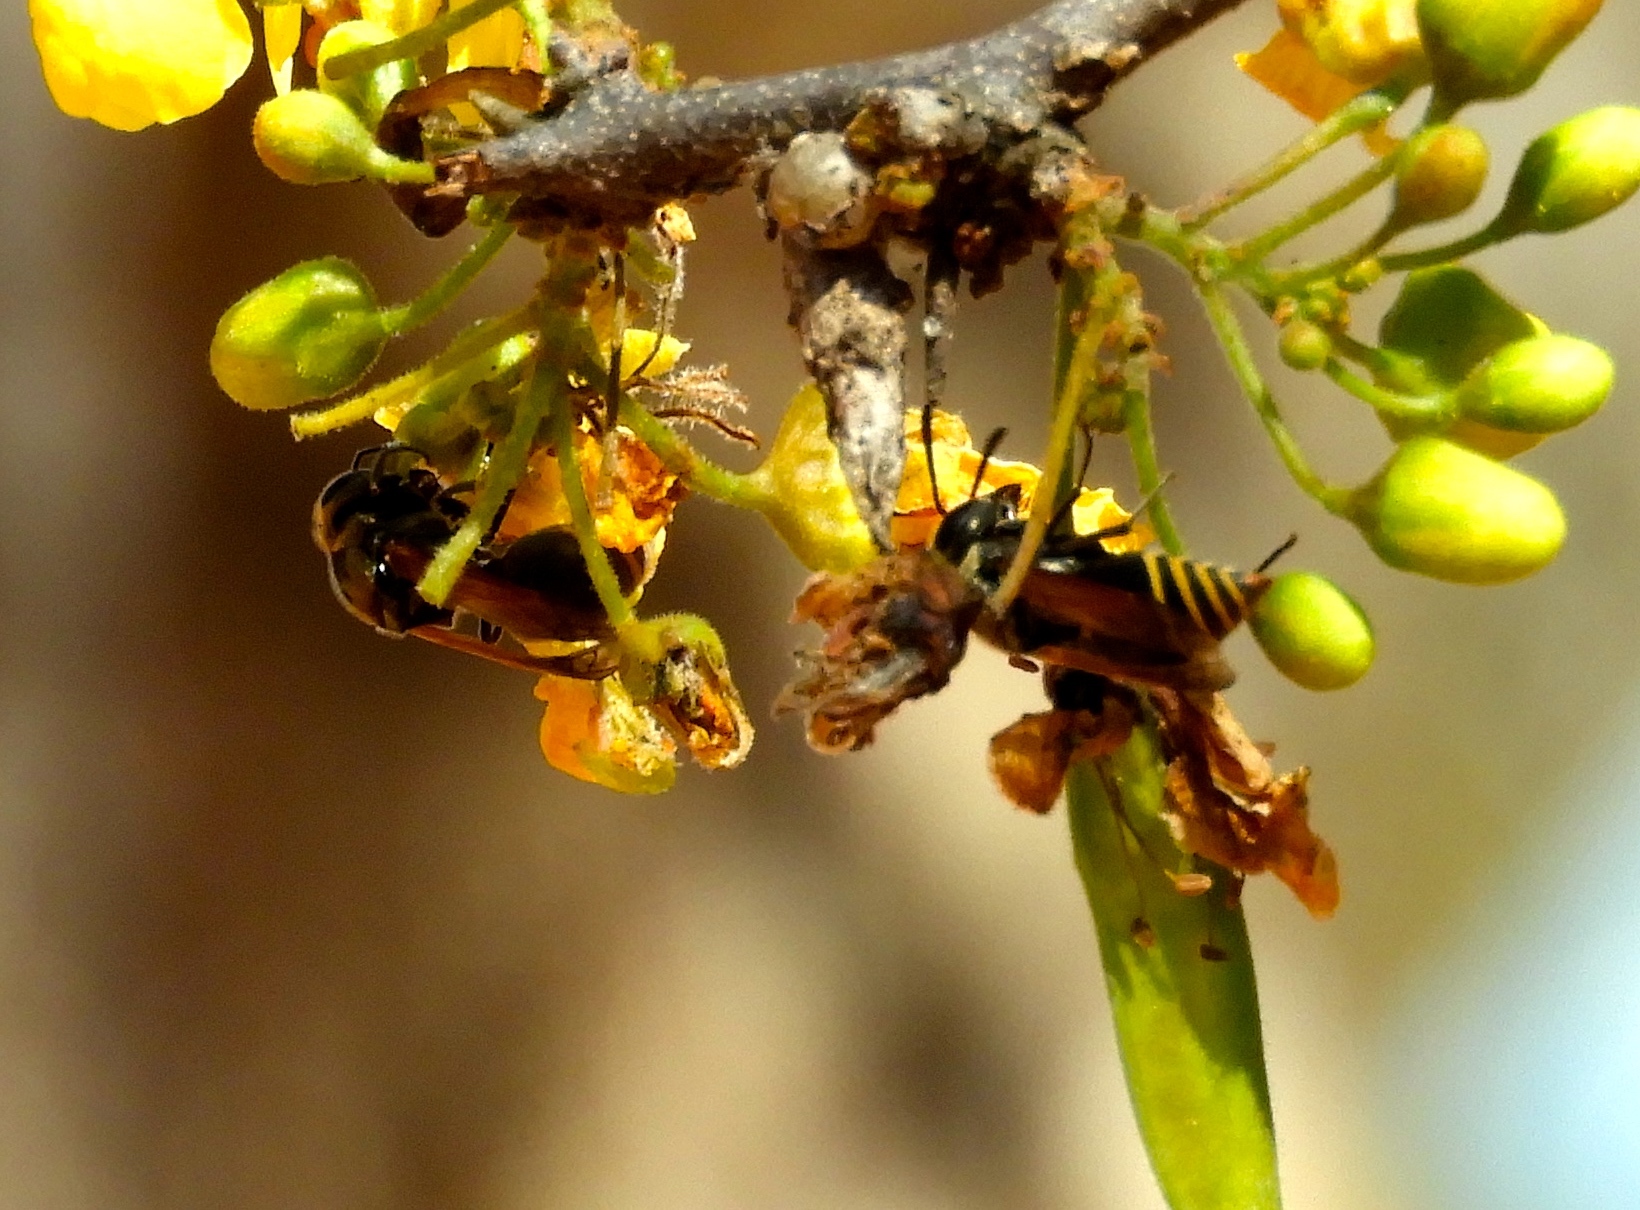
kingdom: Plantae
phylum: Tracheophyta
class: Magnoliopsida
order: Fabales
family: Fabaceae
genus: Haematoxylum
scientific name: Haematoxylum brasiletto
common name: Peachwood
